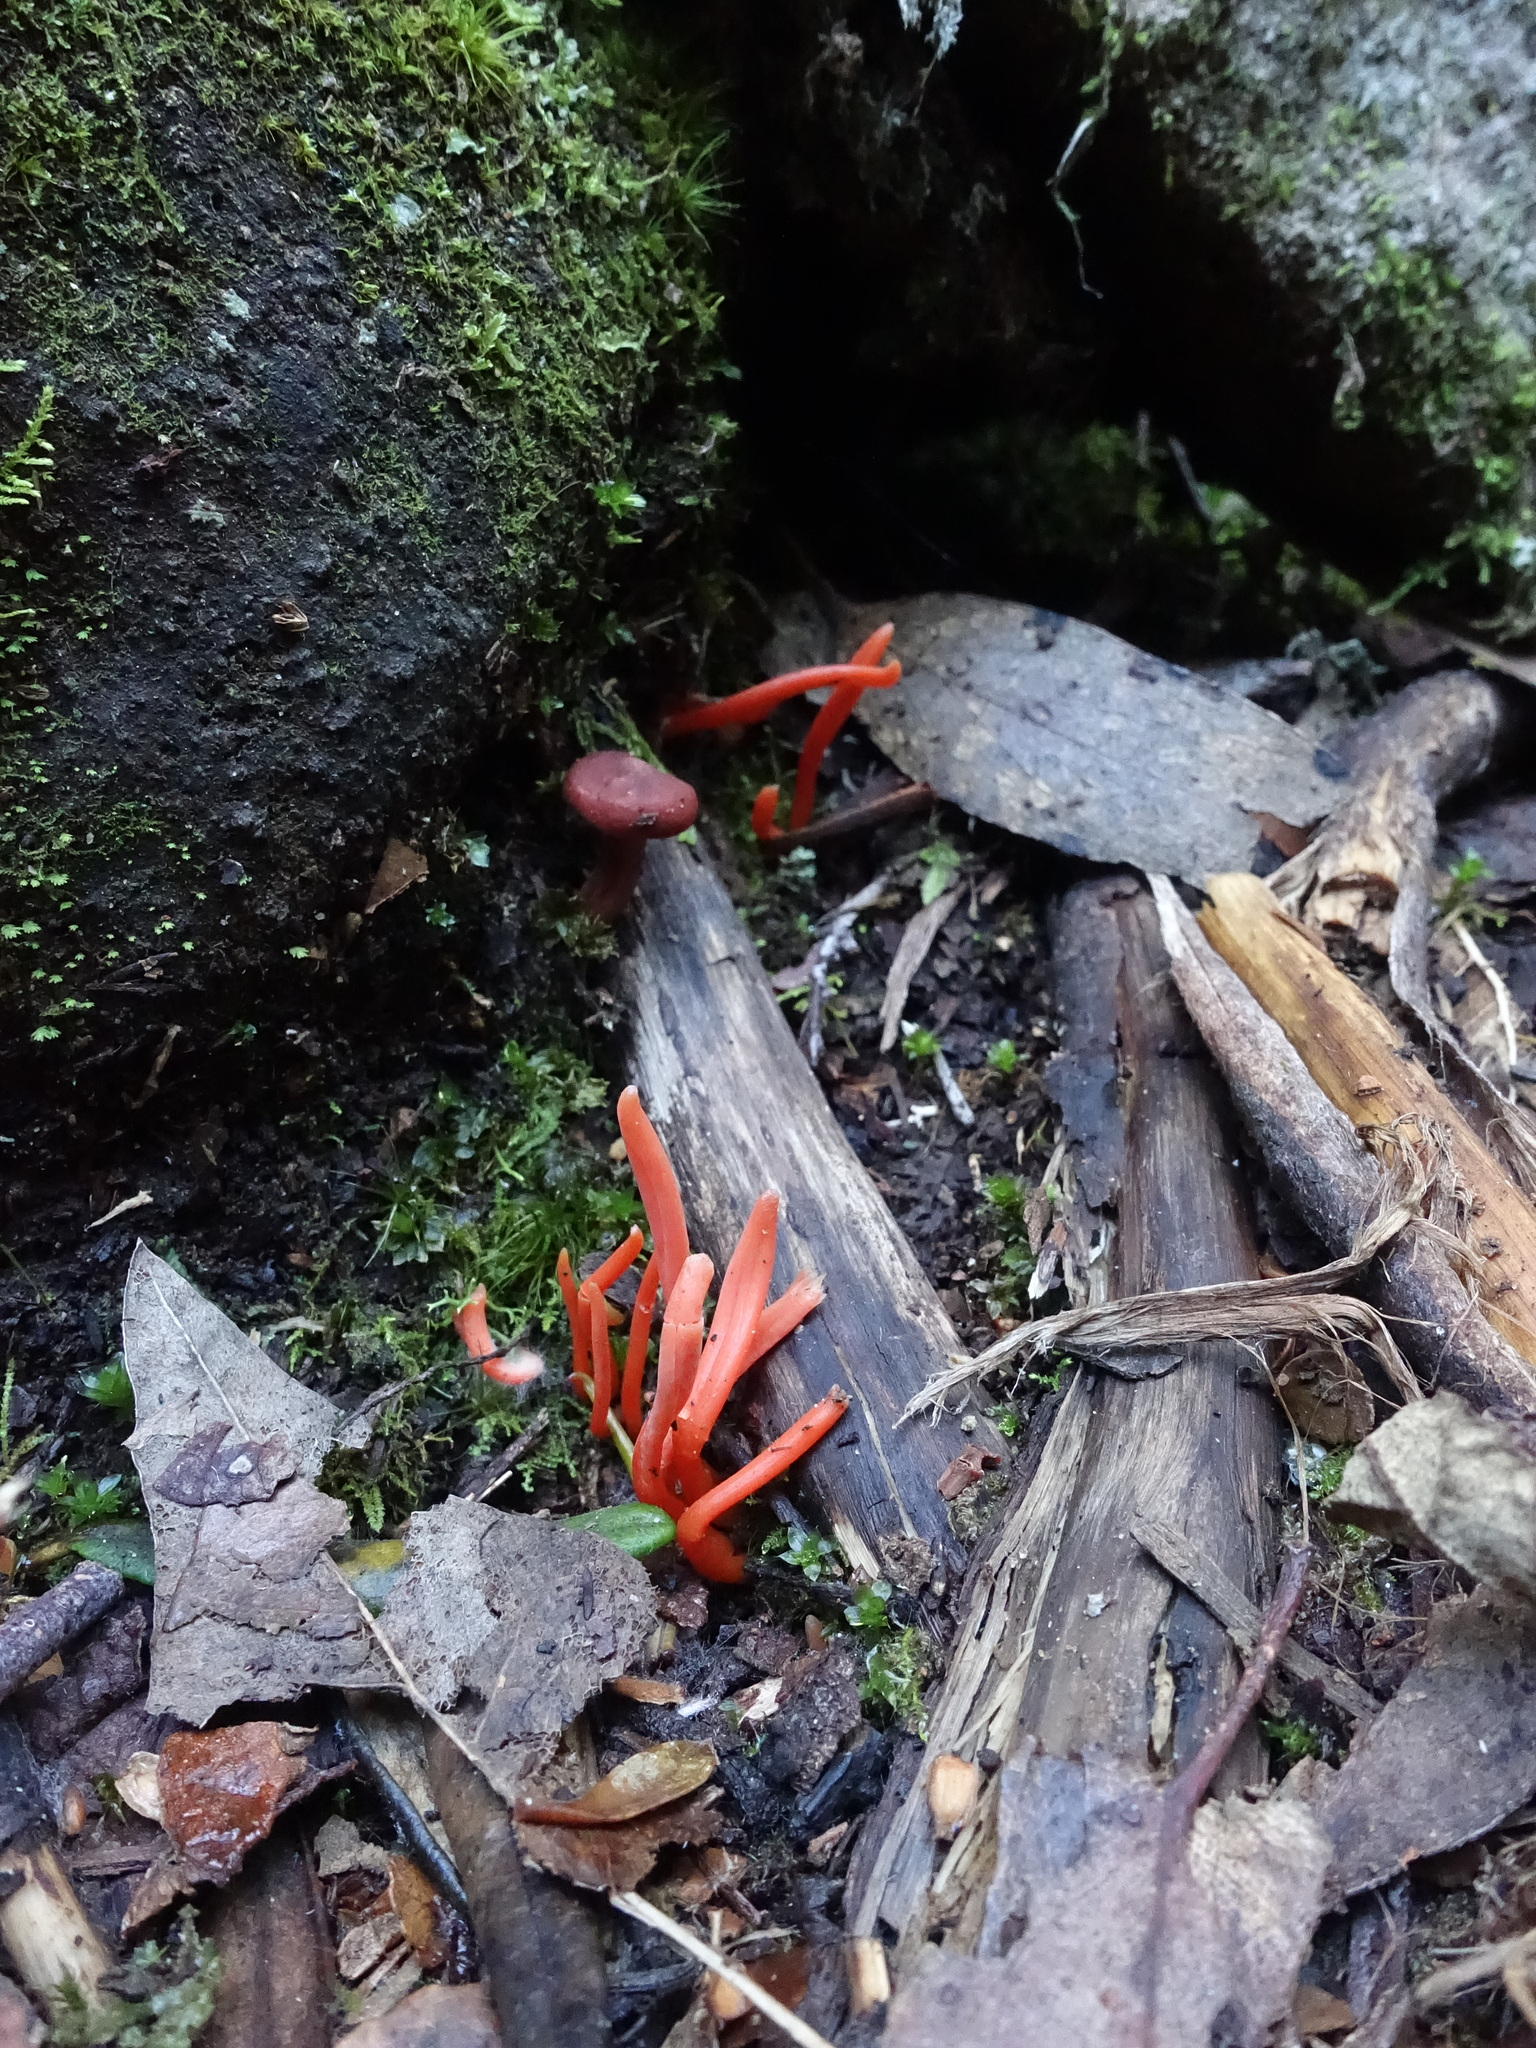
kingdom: Fungi
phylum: Basidiomycota
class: Agaricomycetes
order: Agaricales
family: Clavariaceae
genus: Clavulinopsis
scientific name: Clavulinopsis sulcata
